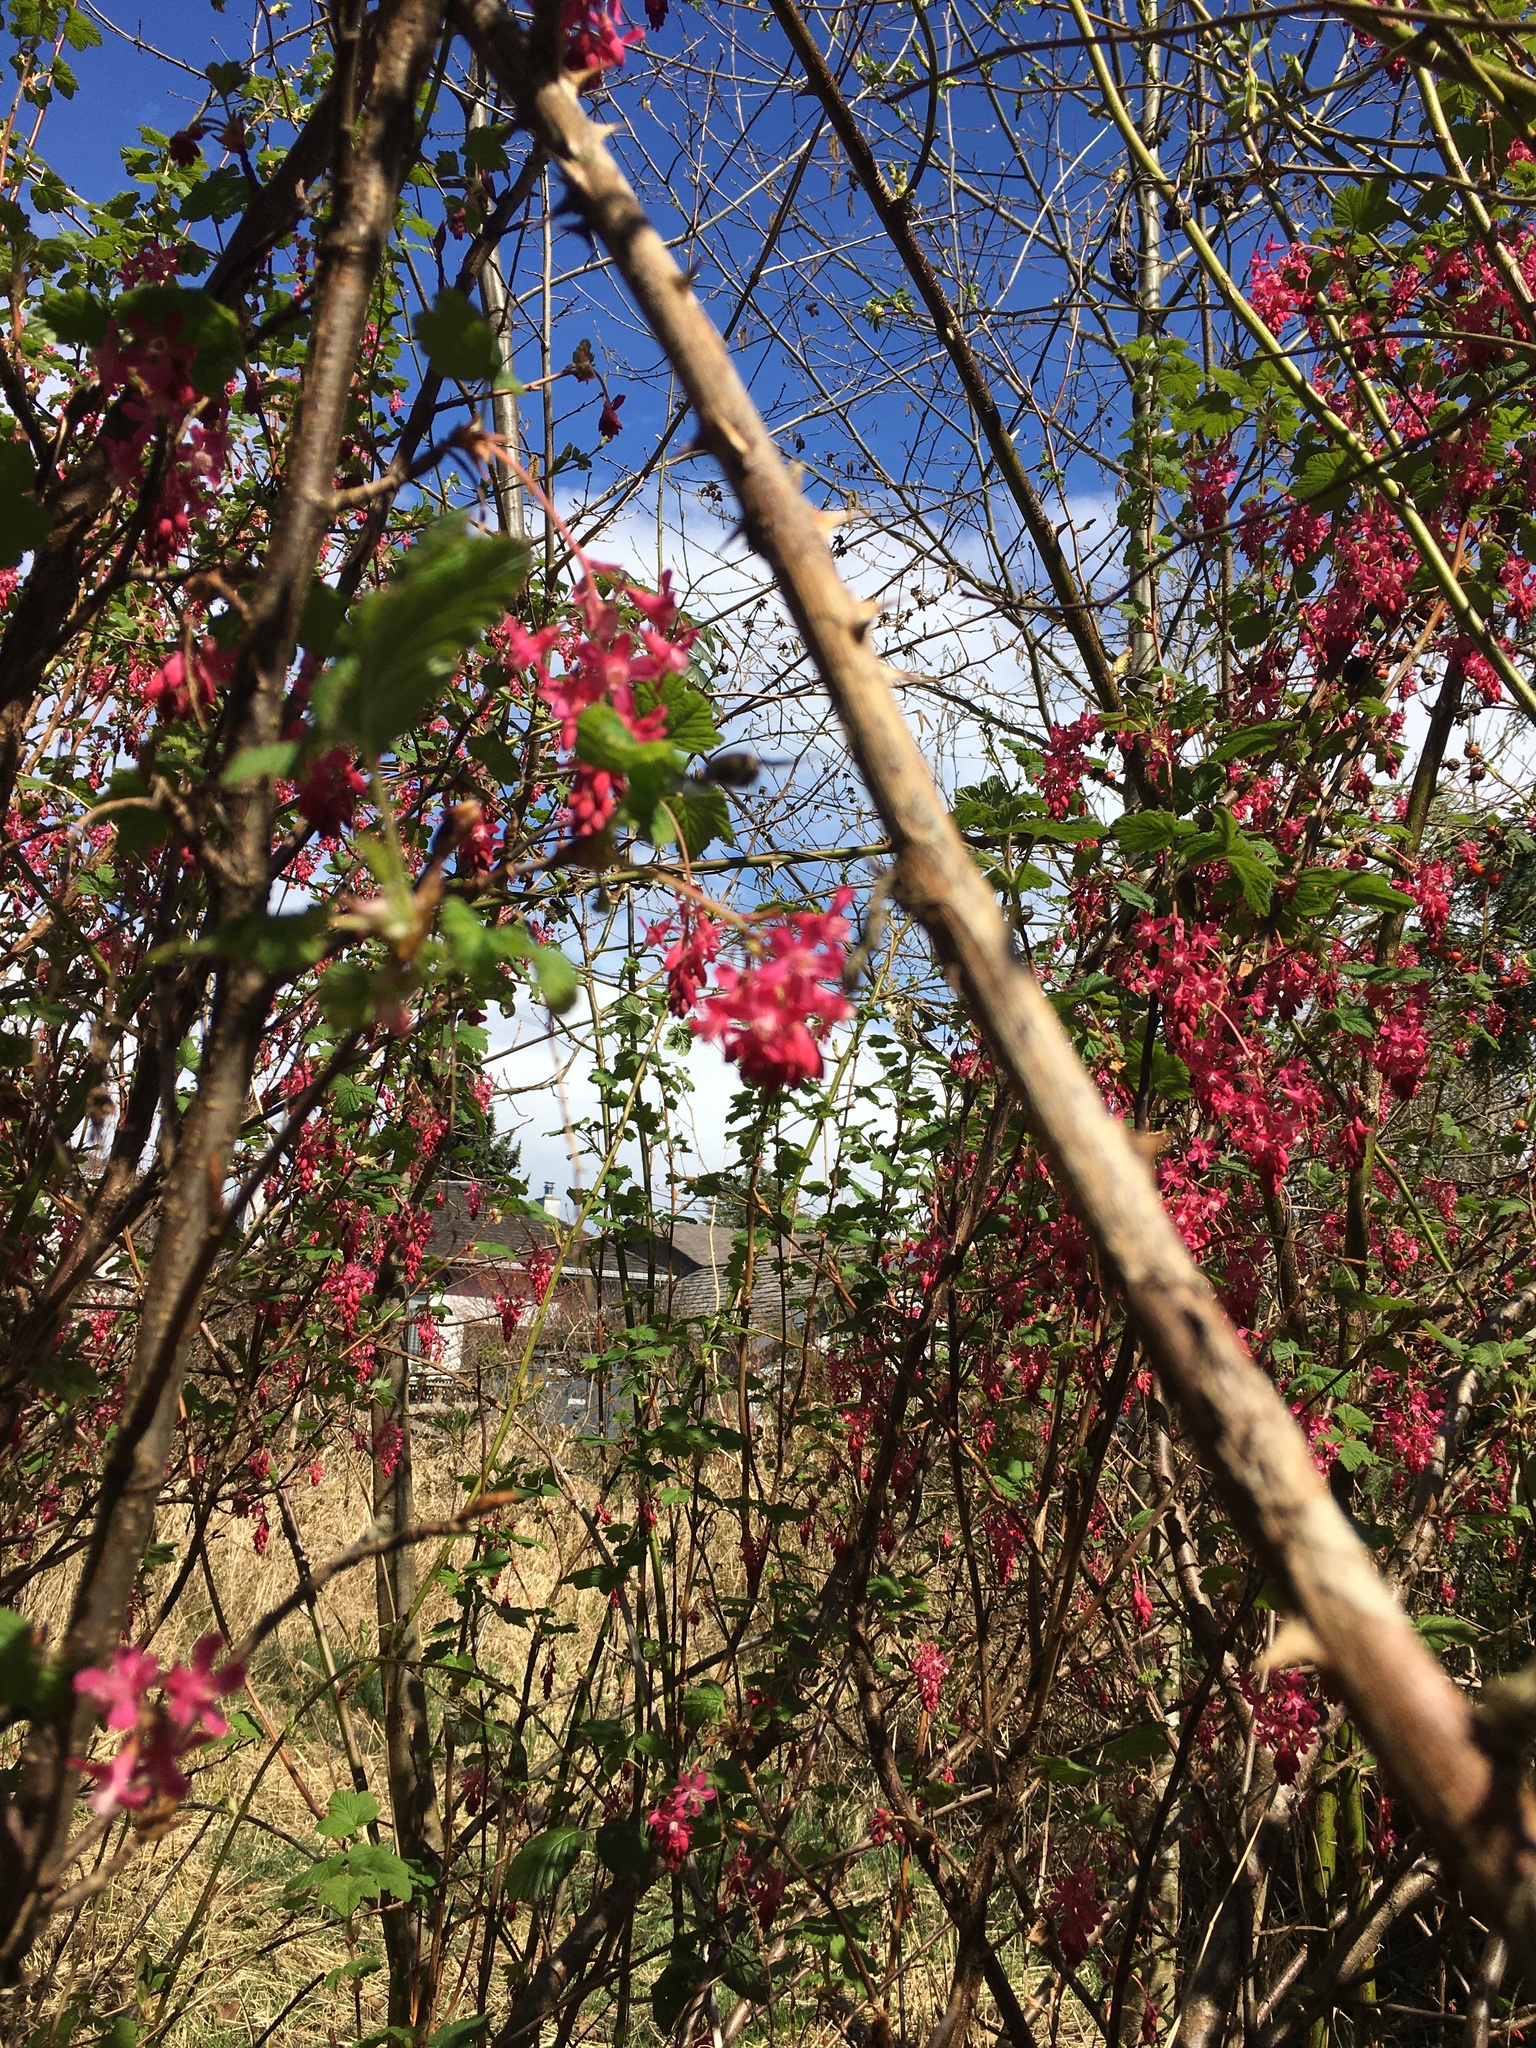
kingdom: Plantae
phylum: Tracheophyta
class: Magnoliopsida
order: Saxifragales
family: Grossulariaceae
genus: Ribes
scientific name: Ribes sanguineum
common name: Flowering currant
